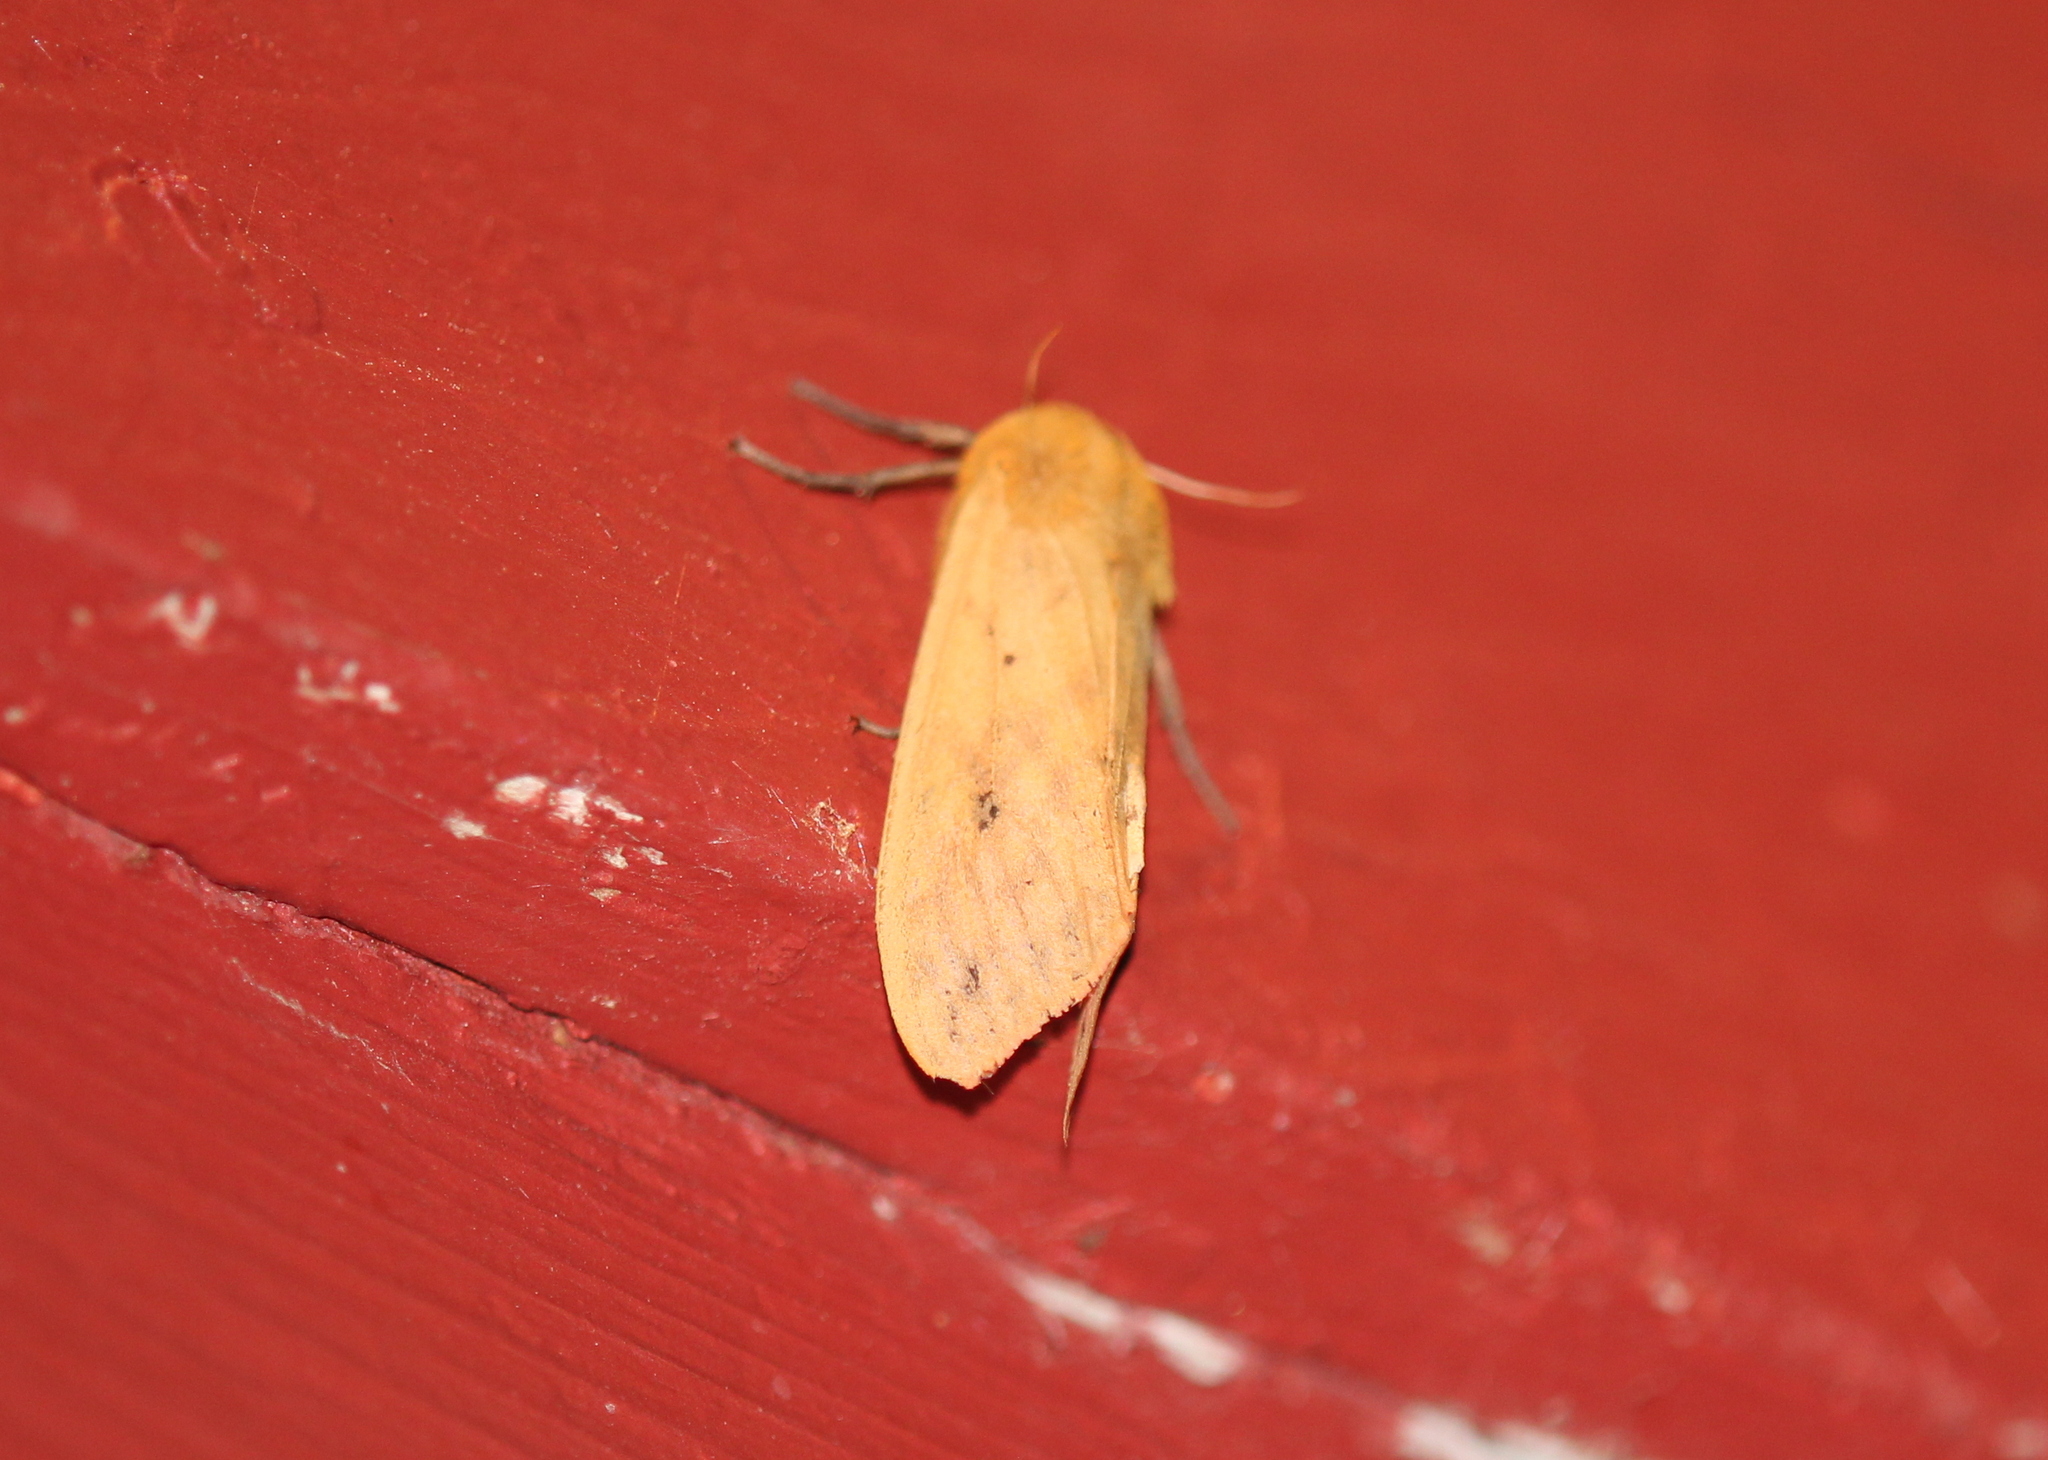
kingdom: Animalia
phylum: Arthropoda
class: Insecta
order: Lepidoptera
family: Erebidae
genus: Pyrrharctia
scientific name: Pyrrharctia isabella
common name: Isabella tiger moth
